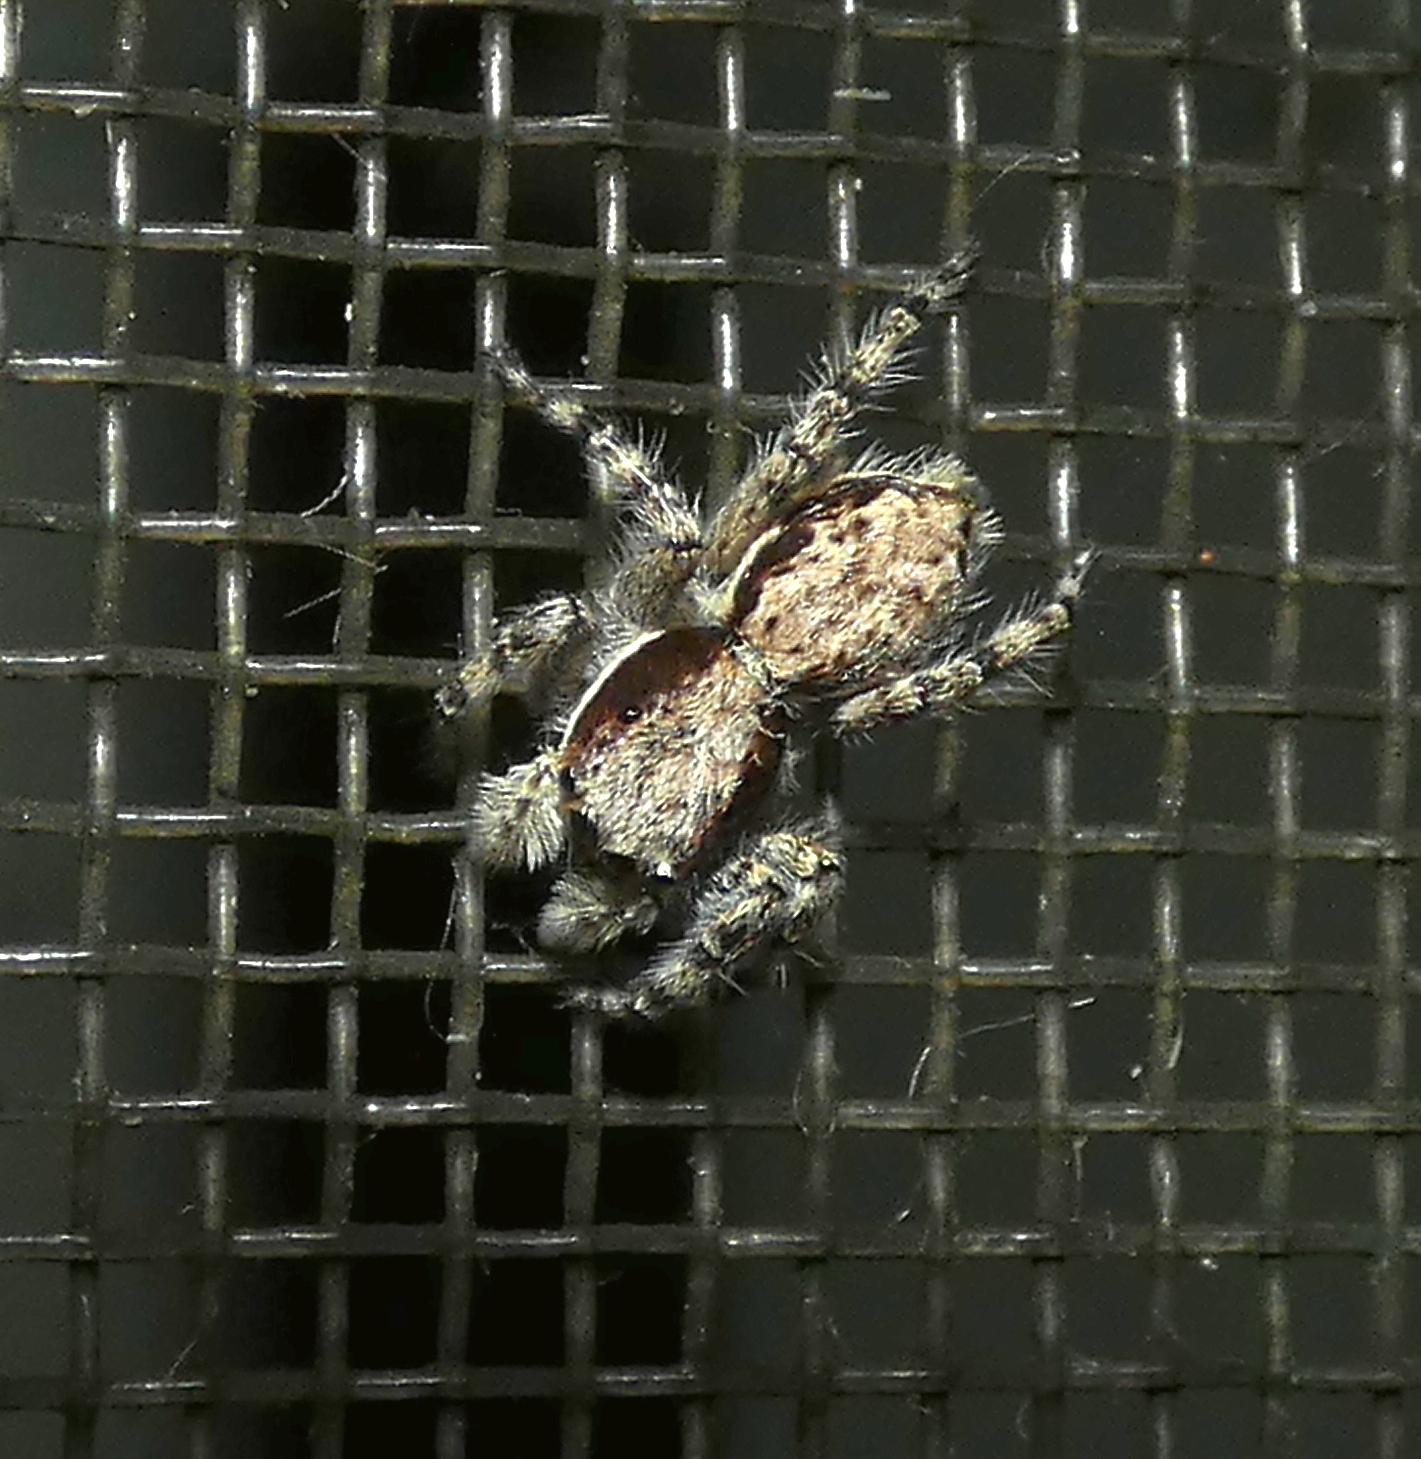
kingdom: Animalia
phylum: Arthropoda
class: Arachnida
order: Araneae
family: Salticidae
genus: Menemerus
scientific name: Menemerus bivittatus
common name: Gray wall jumper
